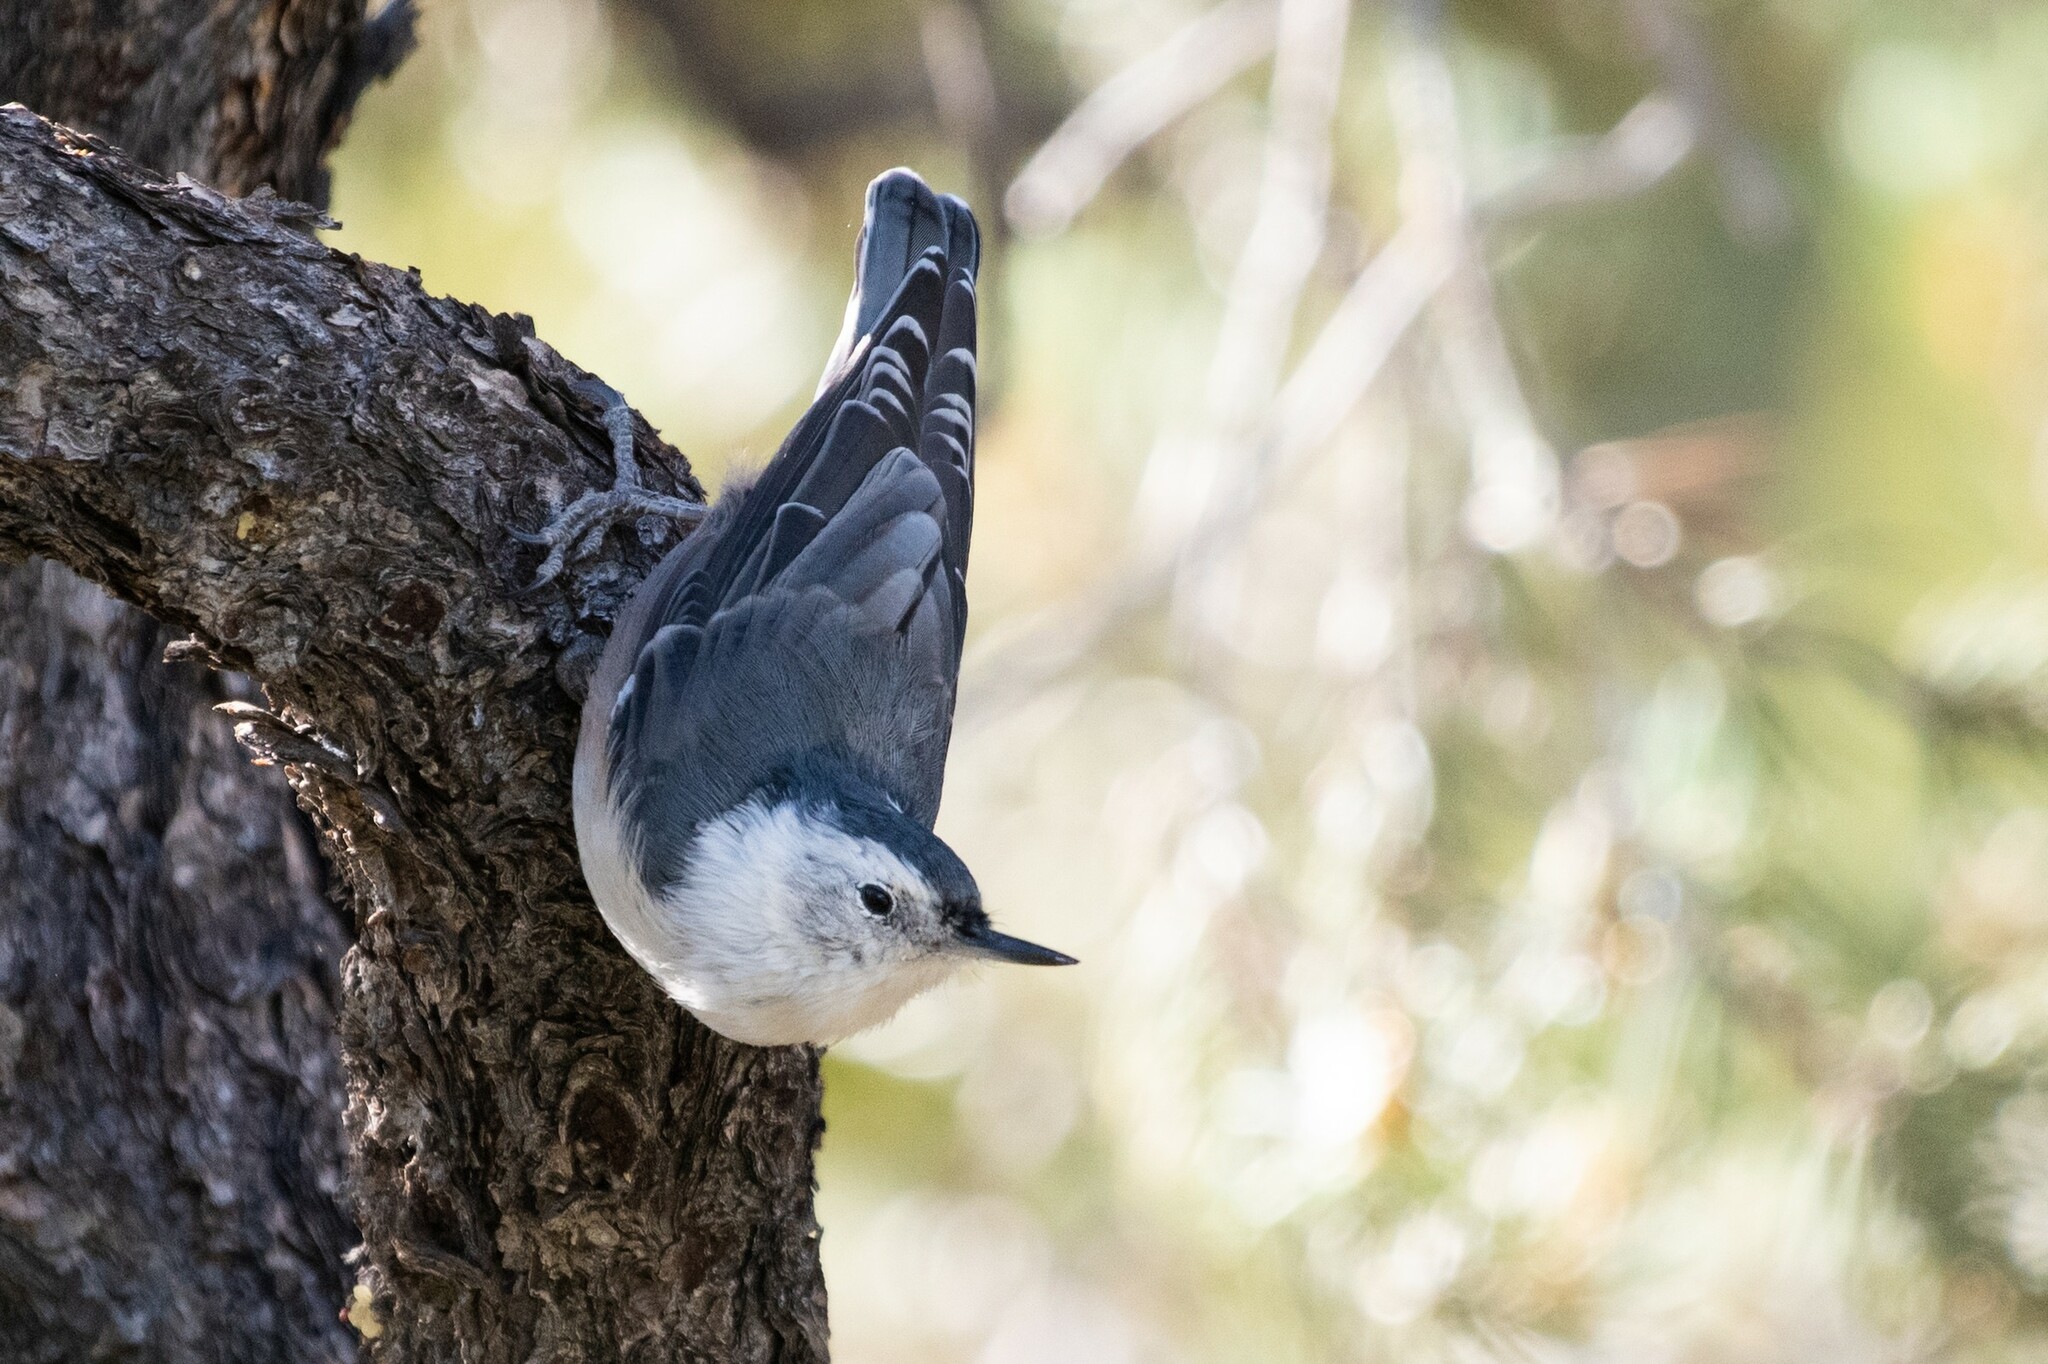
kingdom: Animalia
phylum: Chordata
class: Aves
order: Passeriformes
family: Sittidae
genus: Sitta
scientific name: Sitta carolinensis
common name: White-breasted nuthatch
